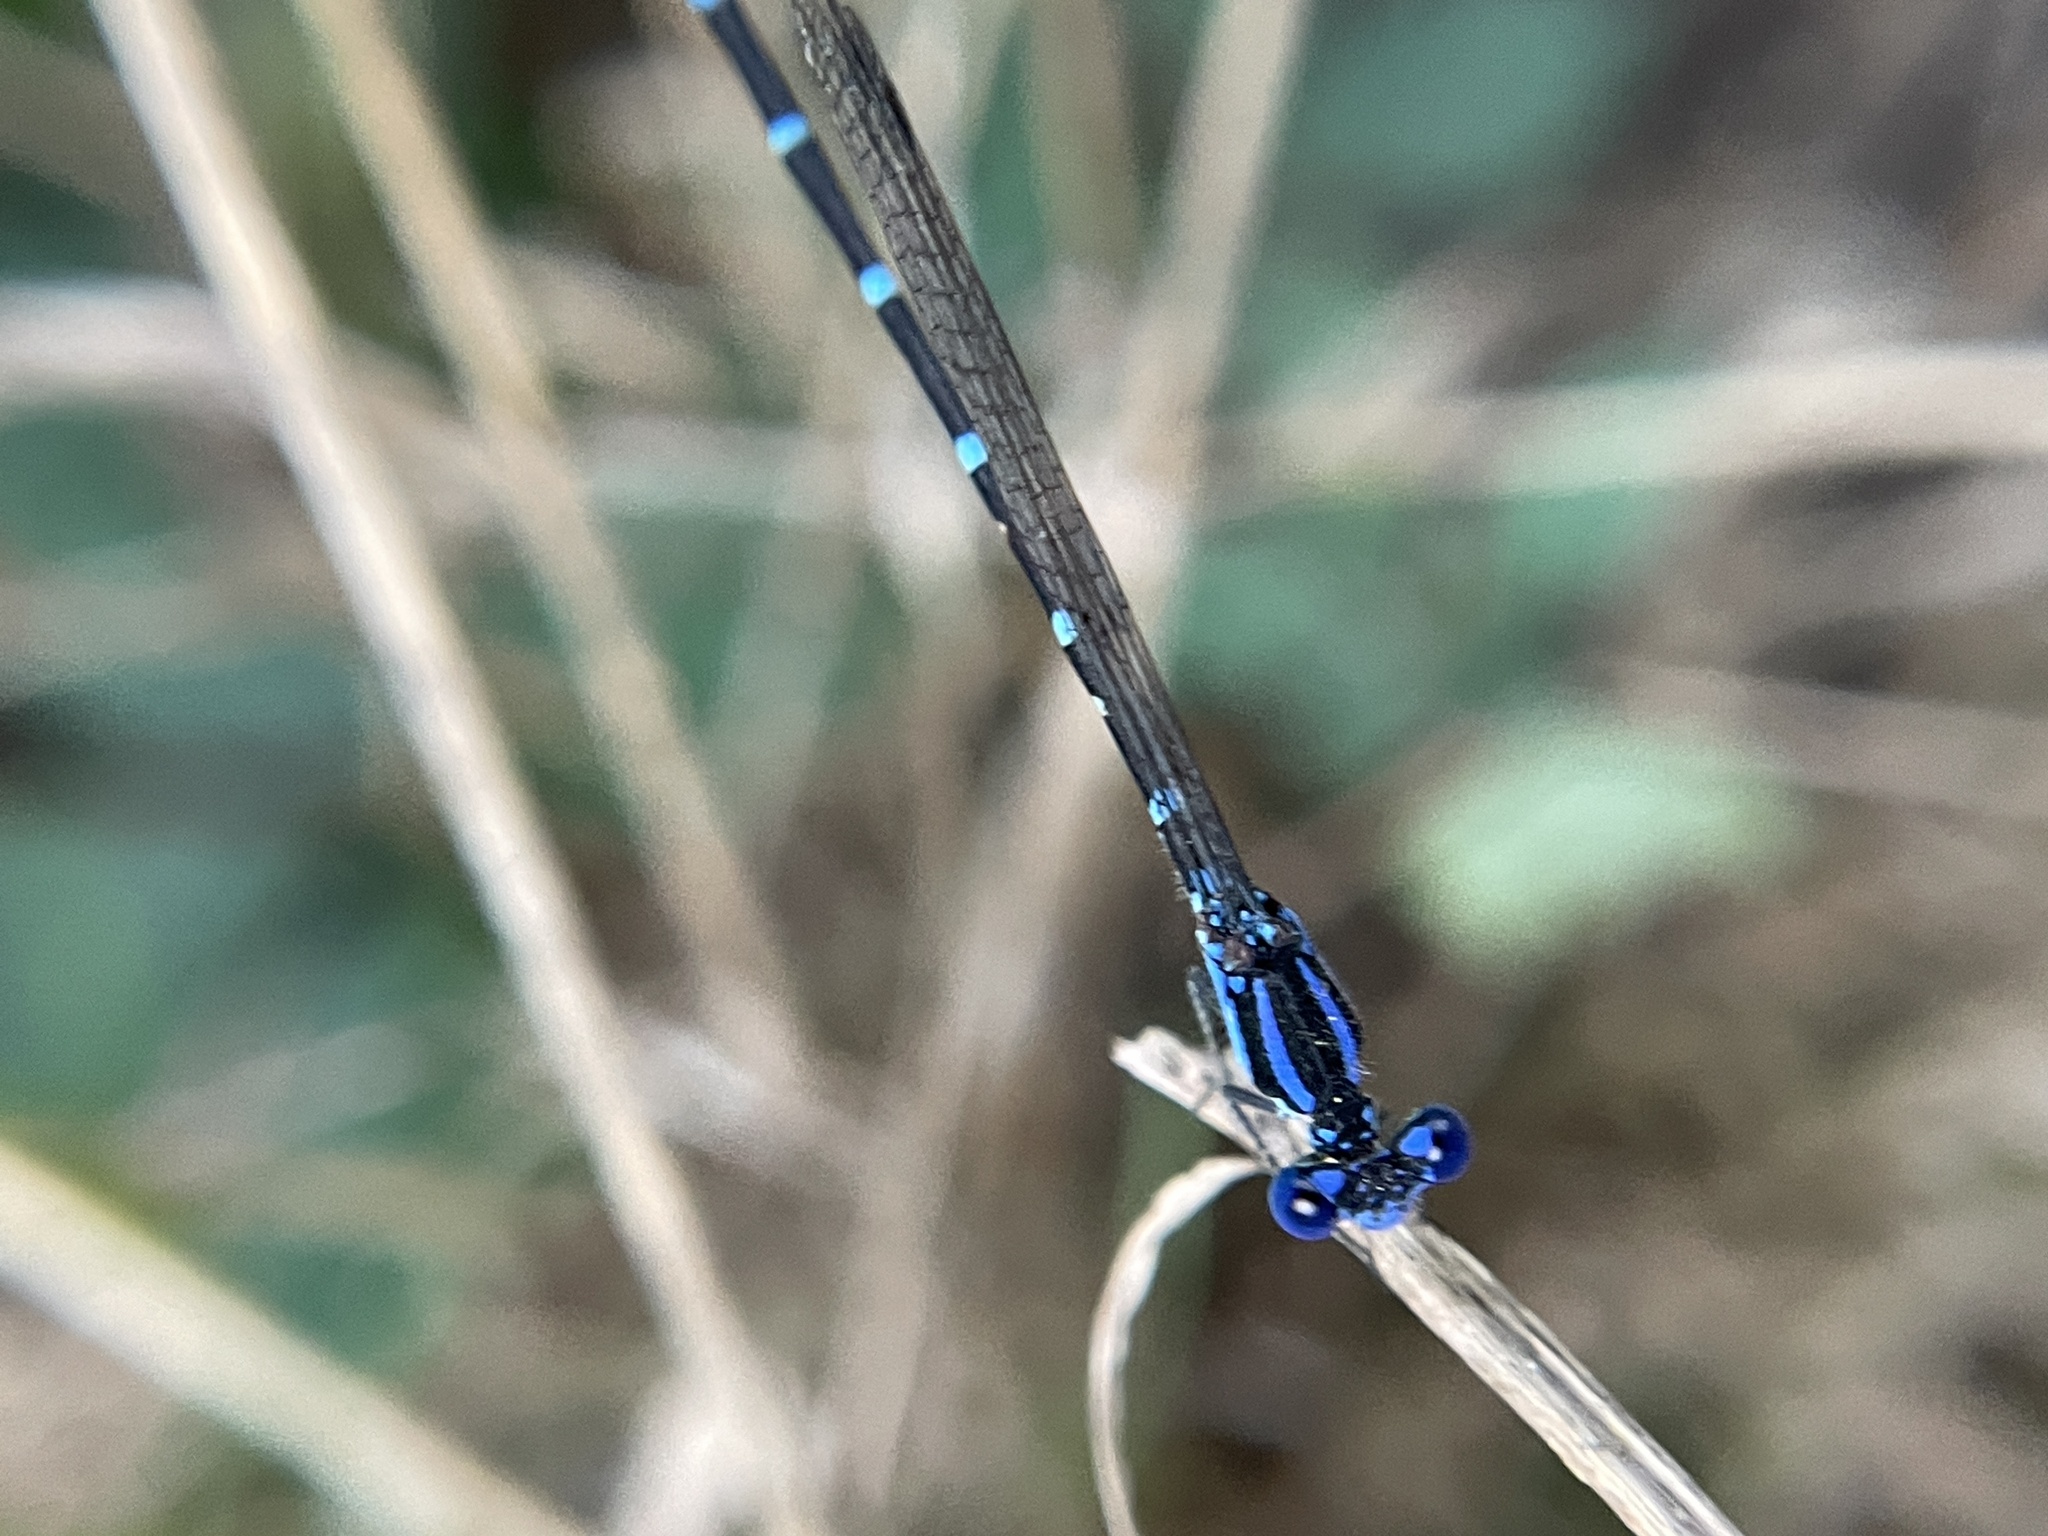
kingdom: Animalia
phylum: Arthropoda
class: Insecta
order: Odonata
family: Coenagrionidae
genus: Argia
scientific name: Argia sedula
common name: Blue-ringed dancer
